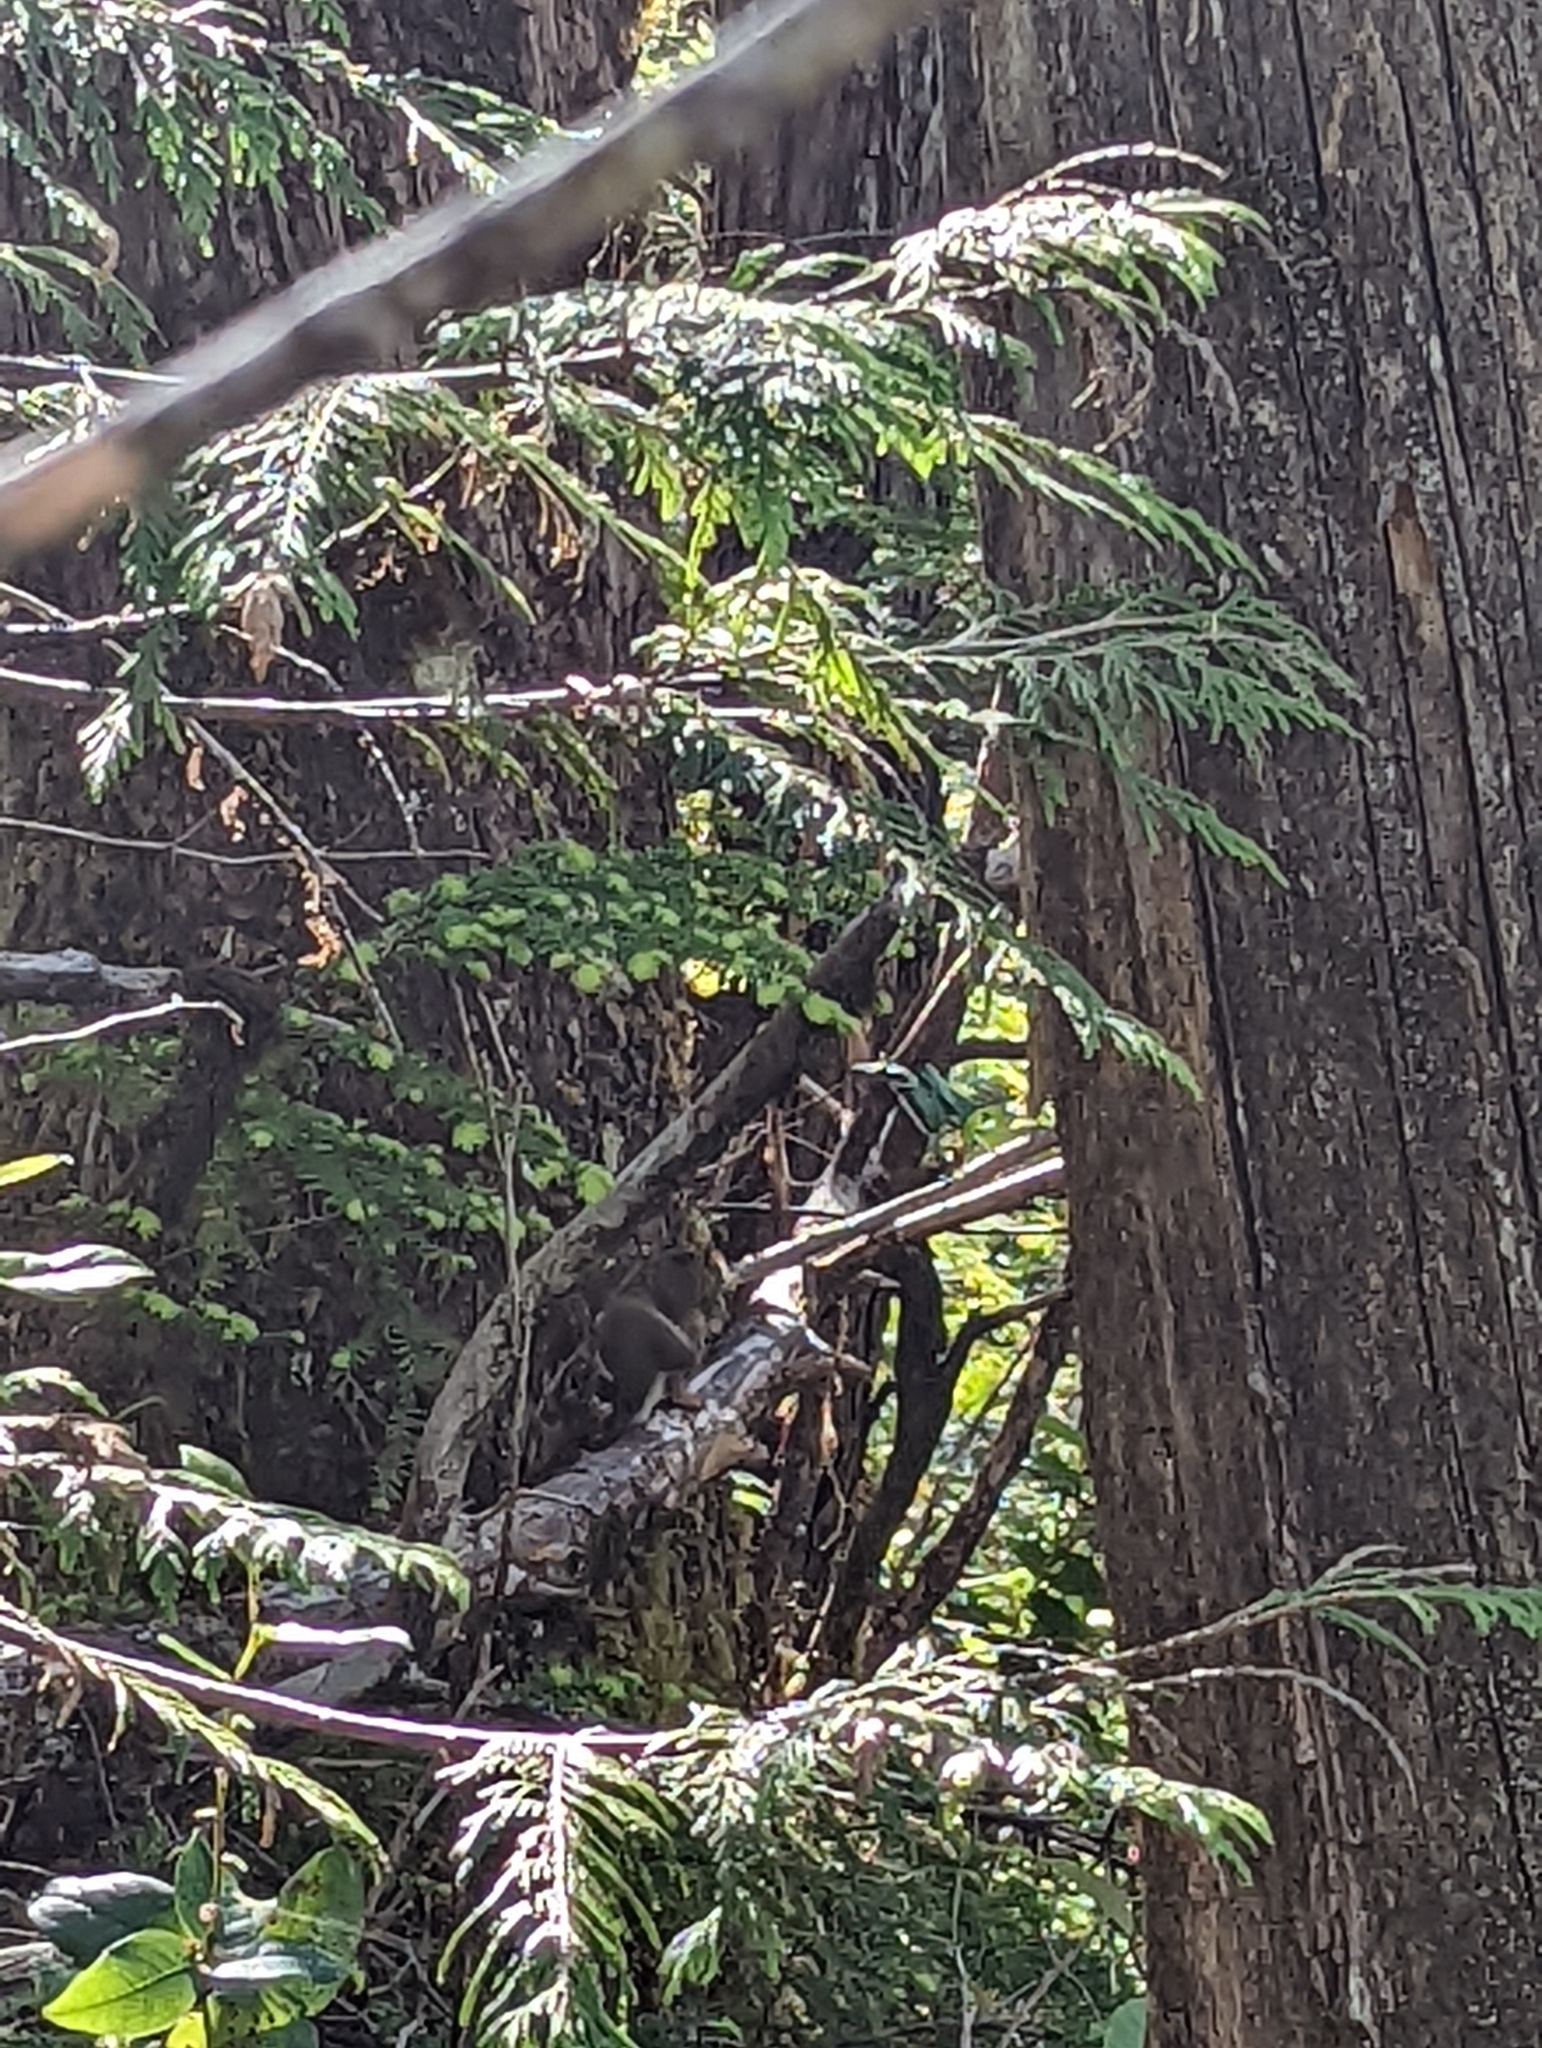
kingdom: Animalia
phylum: Chordata
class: Mammalia
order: Rodentia
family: Sciuridae
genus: Tamiasciurus
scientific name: Tamiasciurus hudsonicus
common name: Red squirrel
